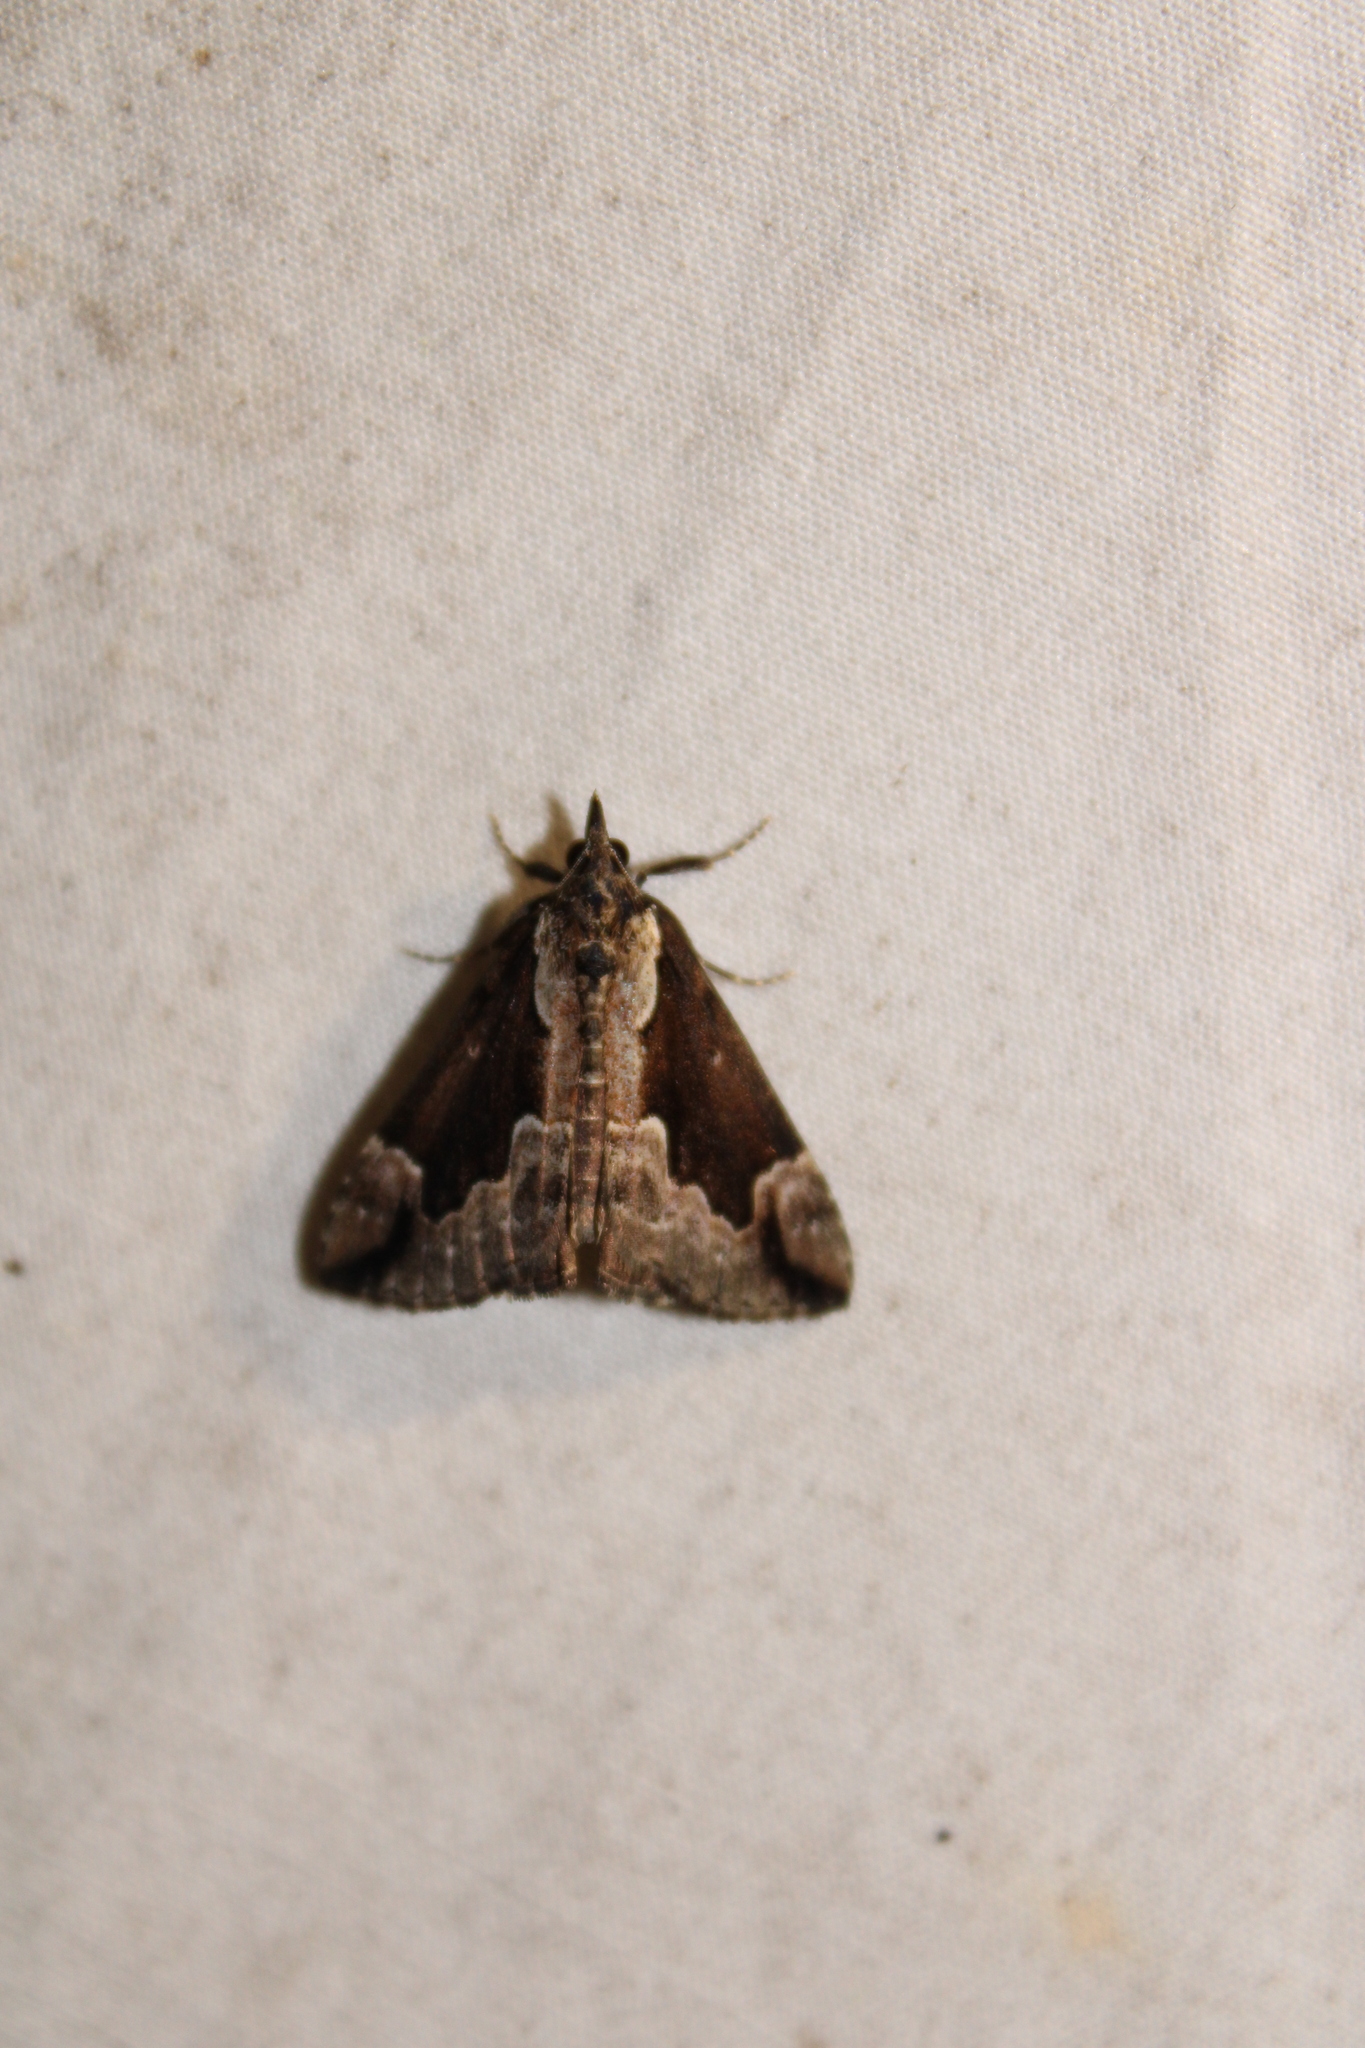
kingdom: Animalia
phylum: Arthropoda
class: Insecta
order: Lepidoptera
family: Erebidae
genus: Hypena
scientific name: Hypena baltimoralis
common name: Baltimore snout
